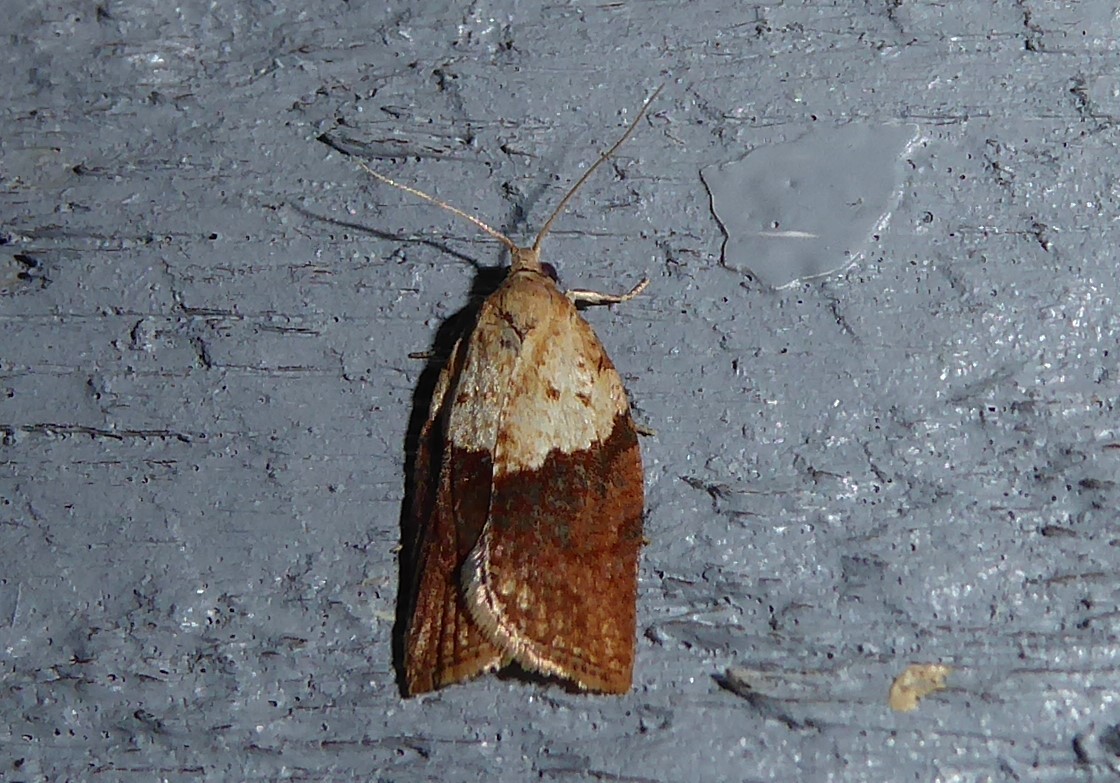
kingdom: Animalia
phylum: Arthropoda
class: Insecta
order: Lepidoptera
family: Tortricidae
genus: Epiphyas
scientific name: Epiphyas postvittana
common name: Light brown apple moth
